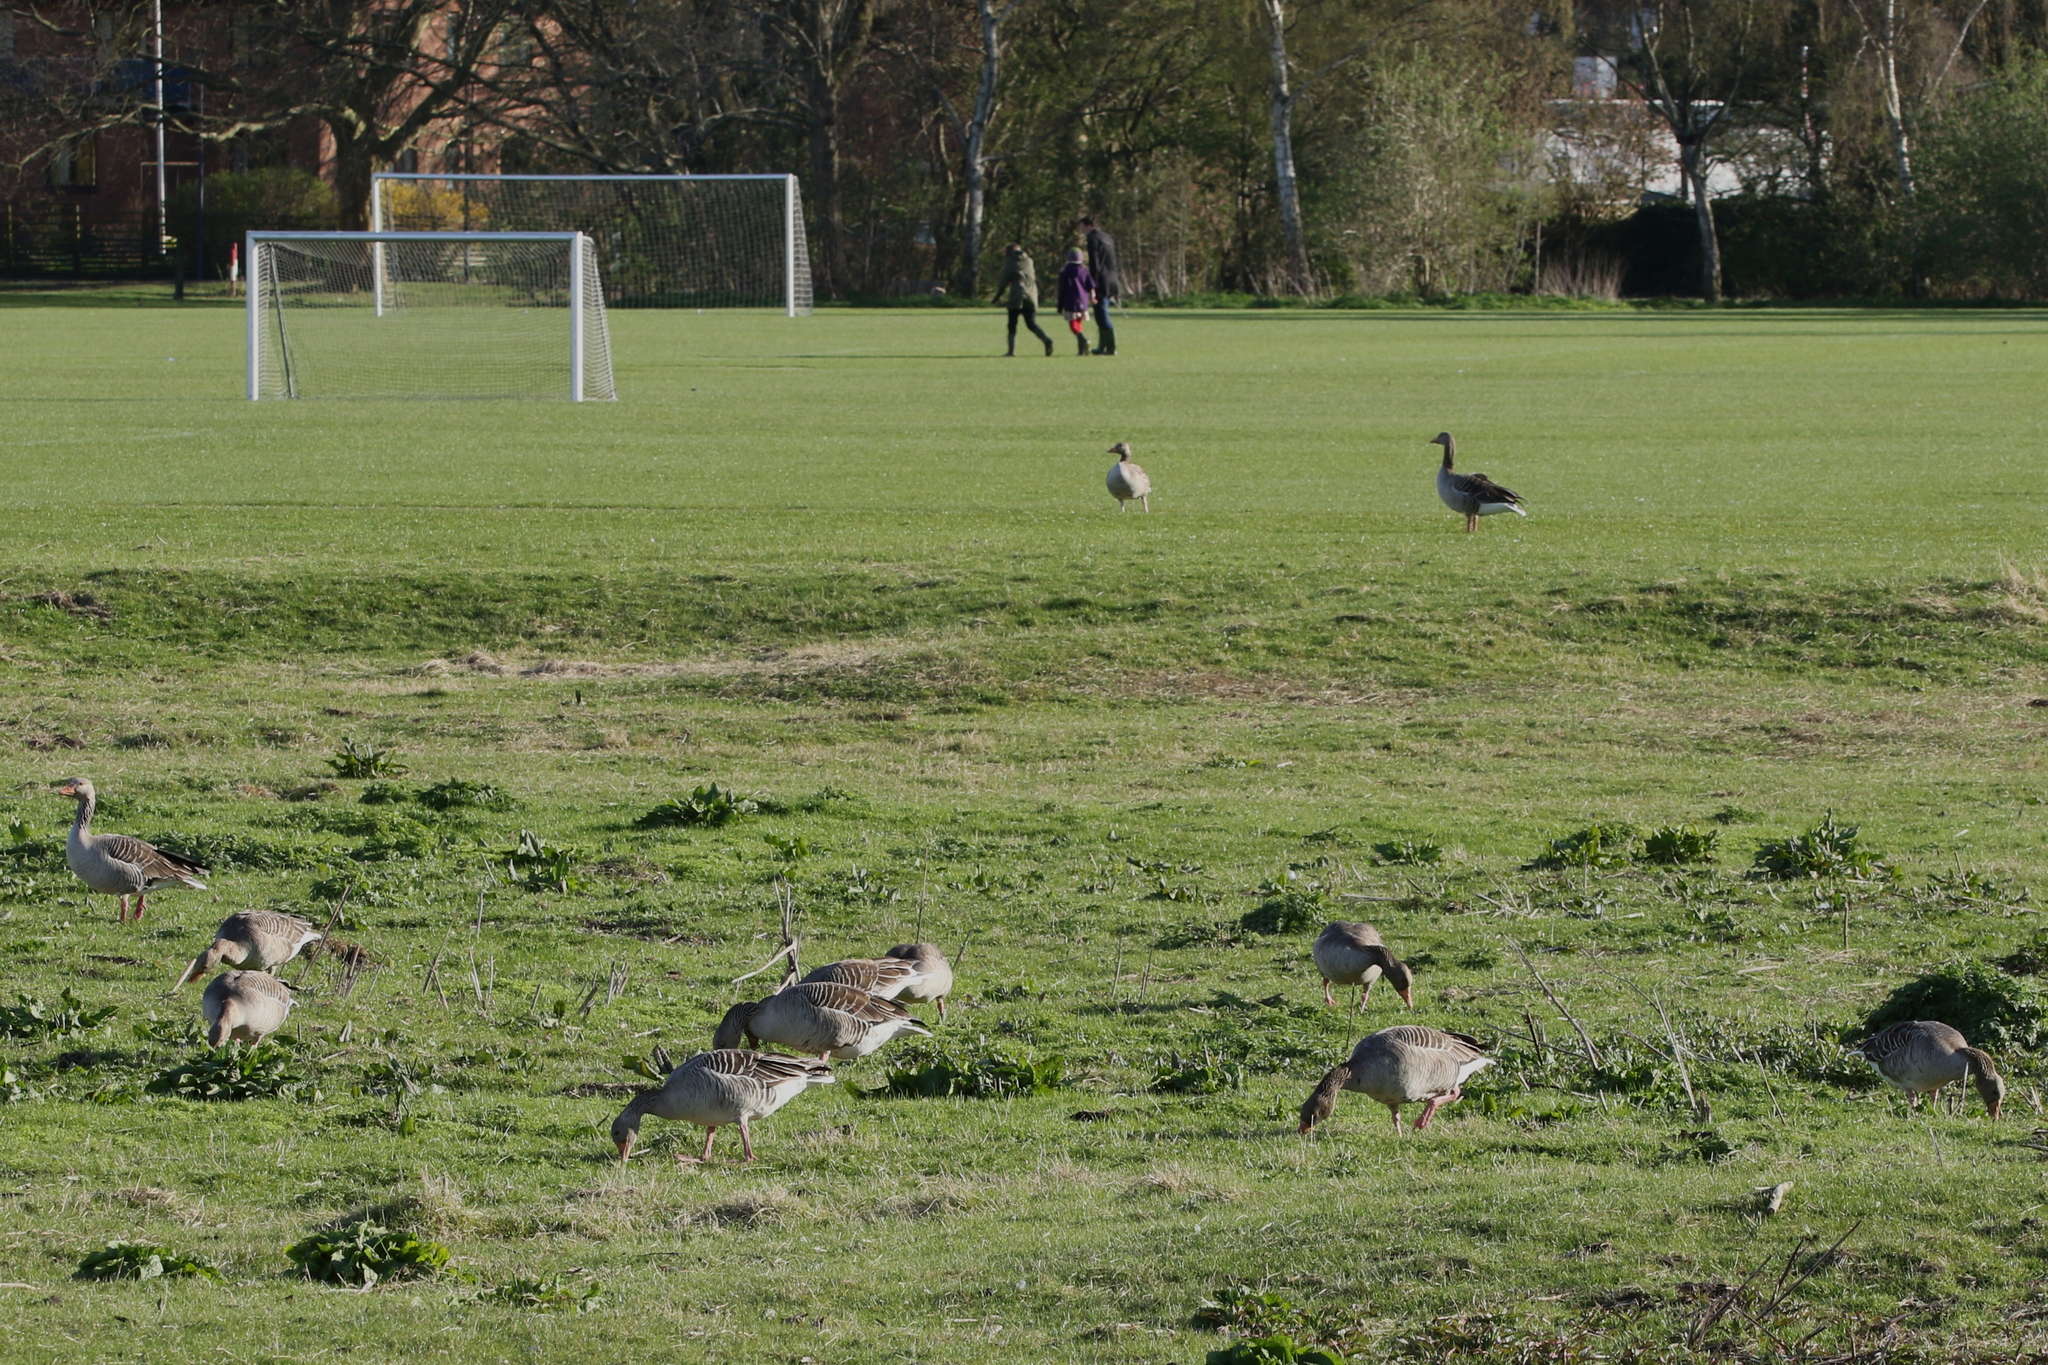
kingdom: Animalia
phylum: Chordata
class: Aves
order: Anseriformes
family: Anatidae
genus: Anser
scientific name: Anser anser
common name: Greylag goose
